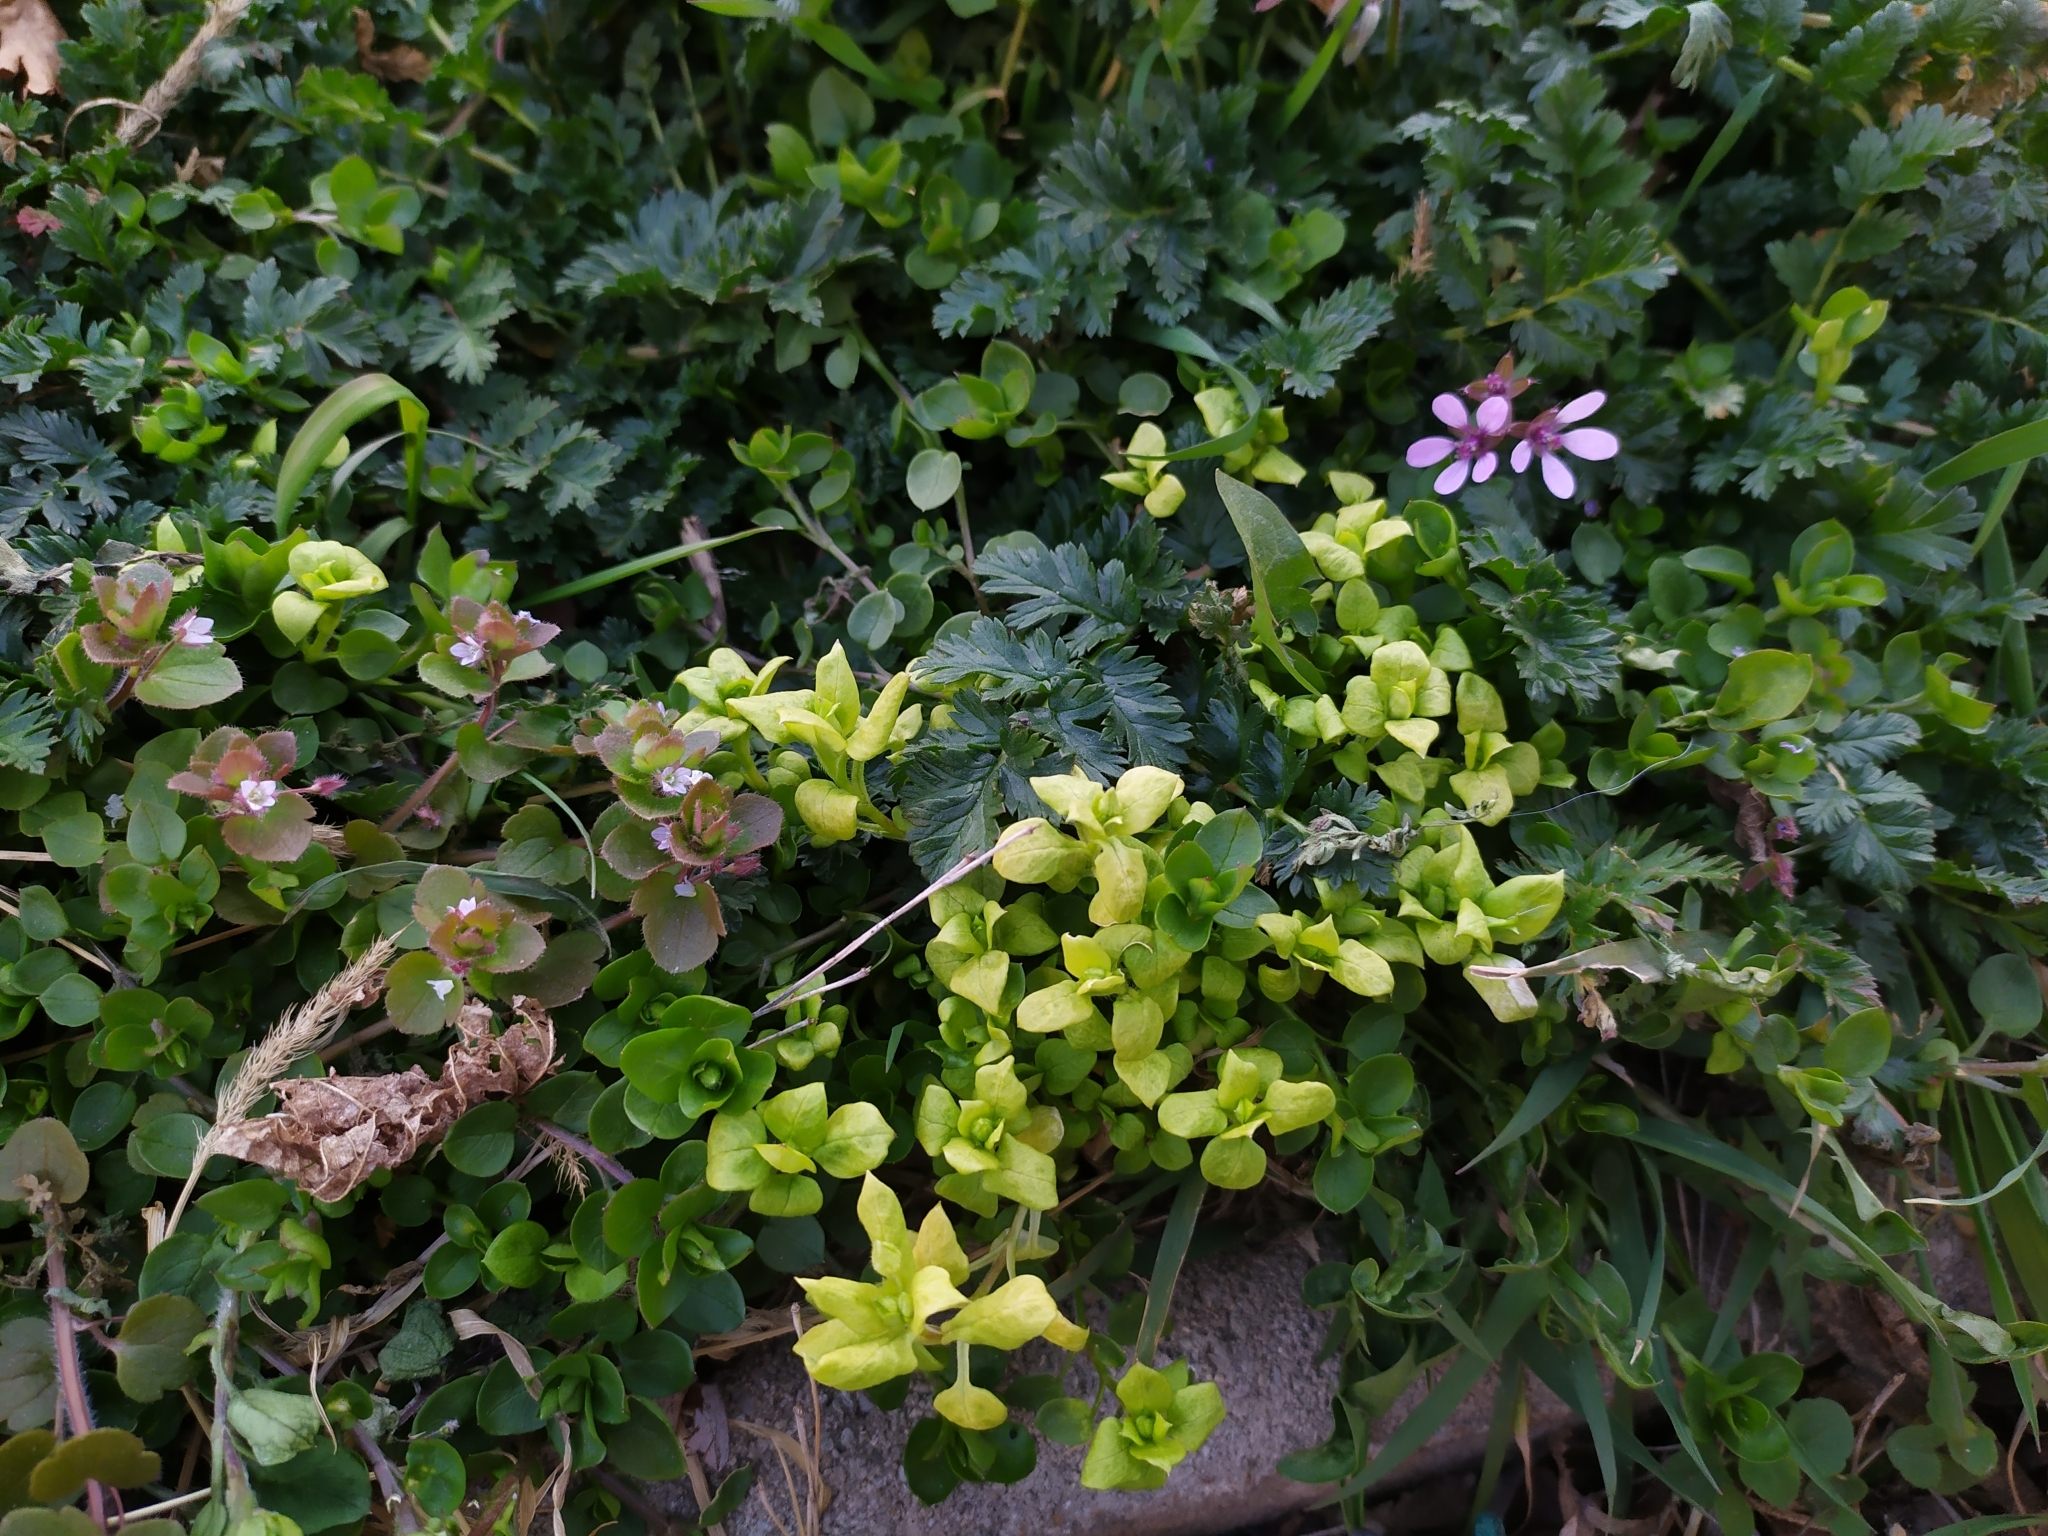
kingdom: Chromista
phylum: Oomycota
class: Peronosporea
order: Peronosporales
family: Peronosporaceae
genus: Peronospora
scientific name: Peronospora alsinearum
